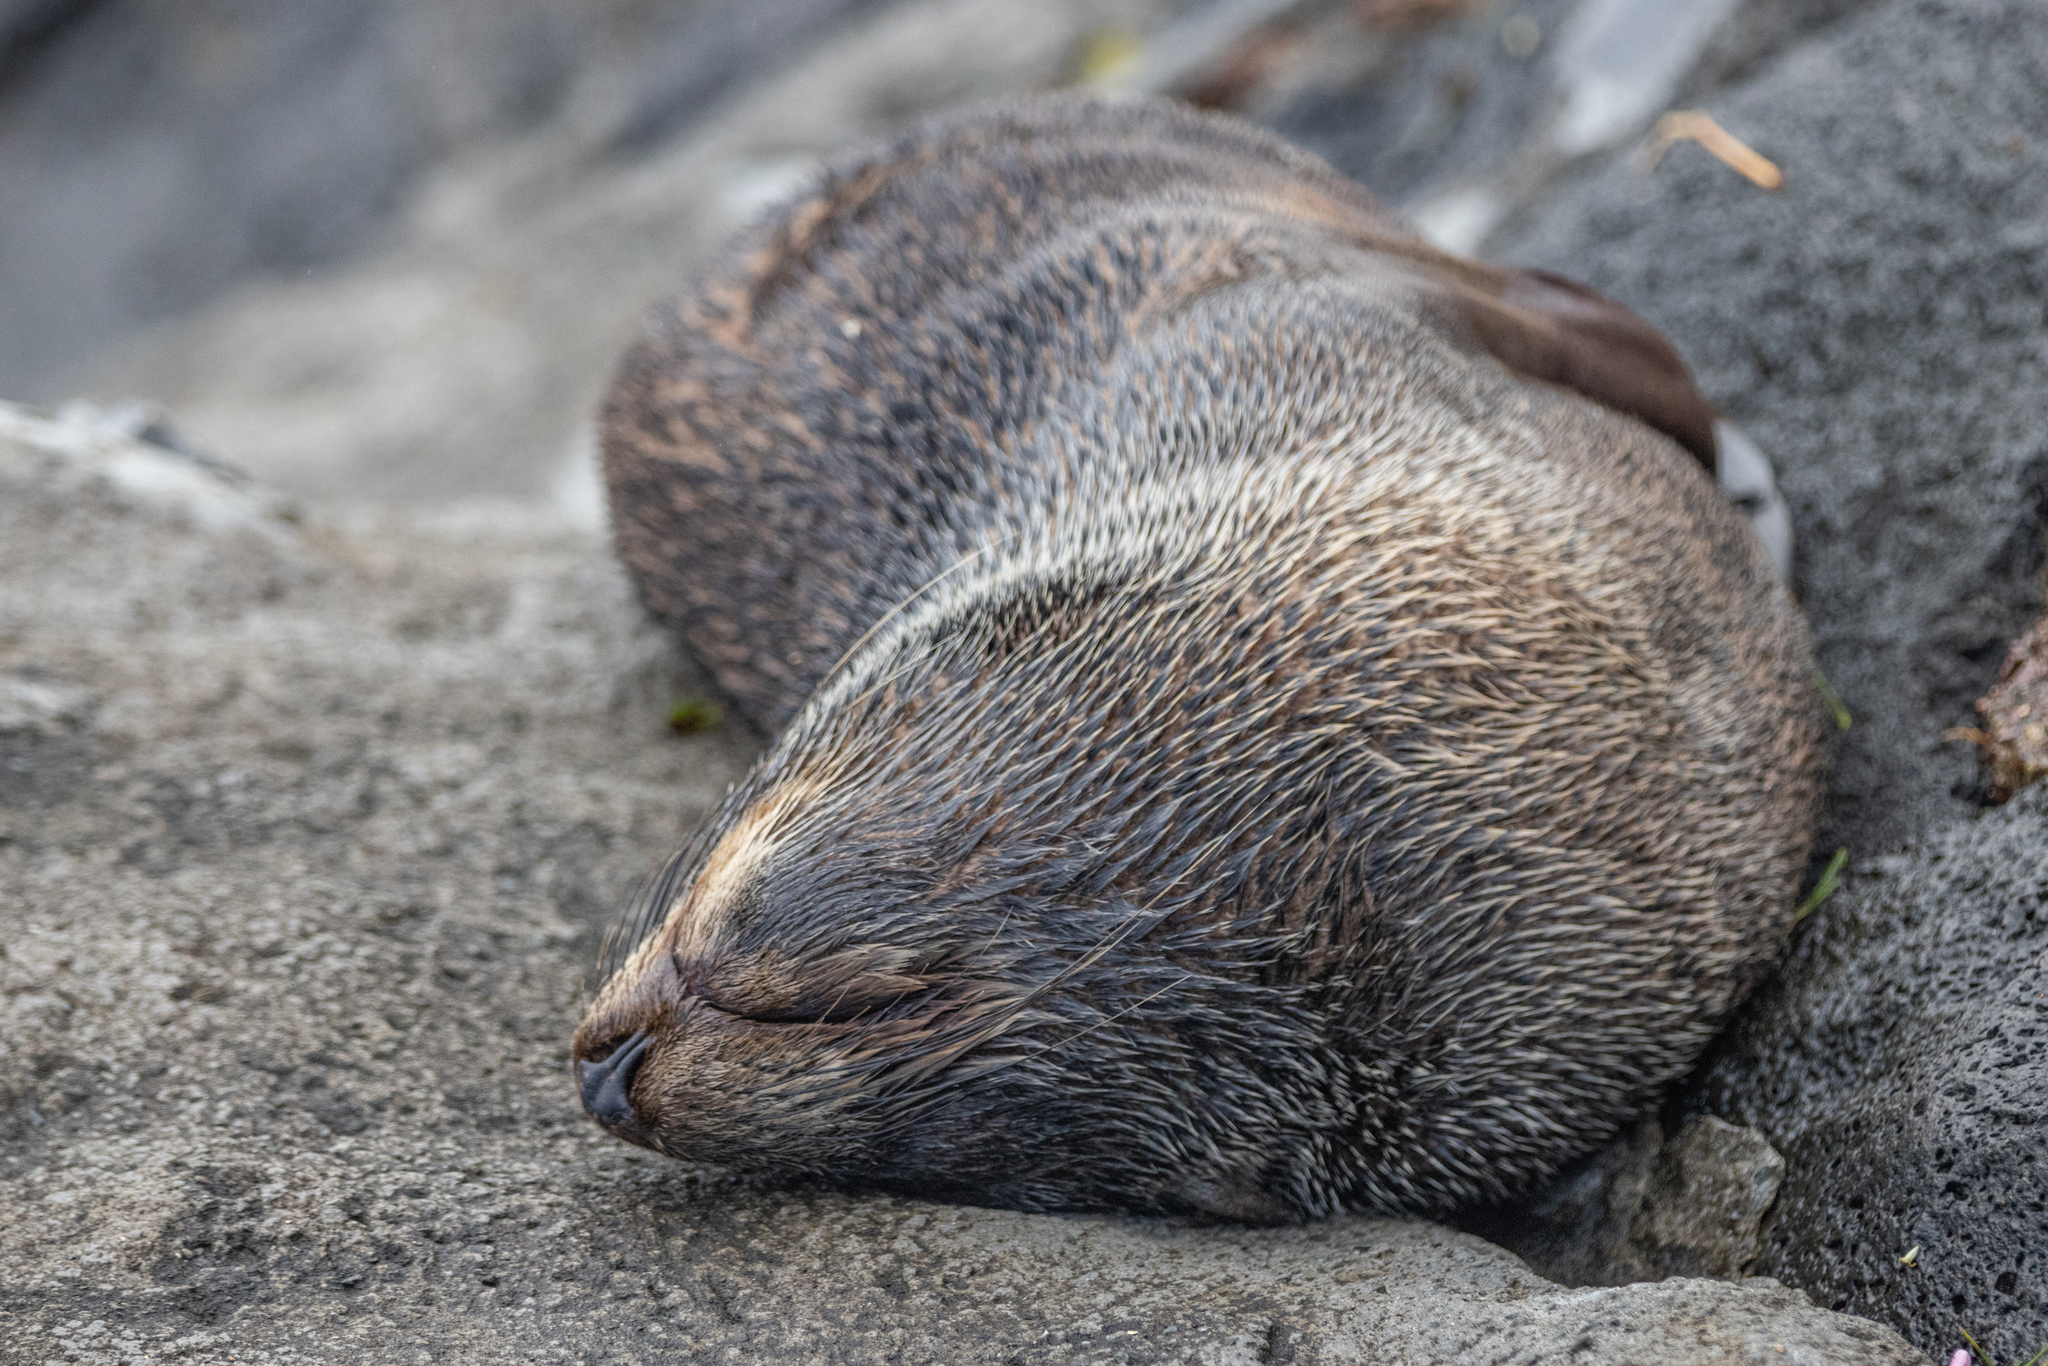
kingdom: Animalia
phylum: Chordata
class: Mammalia
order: Carnivora
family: Otariidae
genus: Arctocephalus
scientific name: Arctocephalus forsteri
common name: New zealand fur seal
